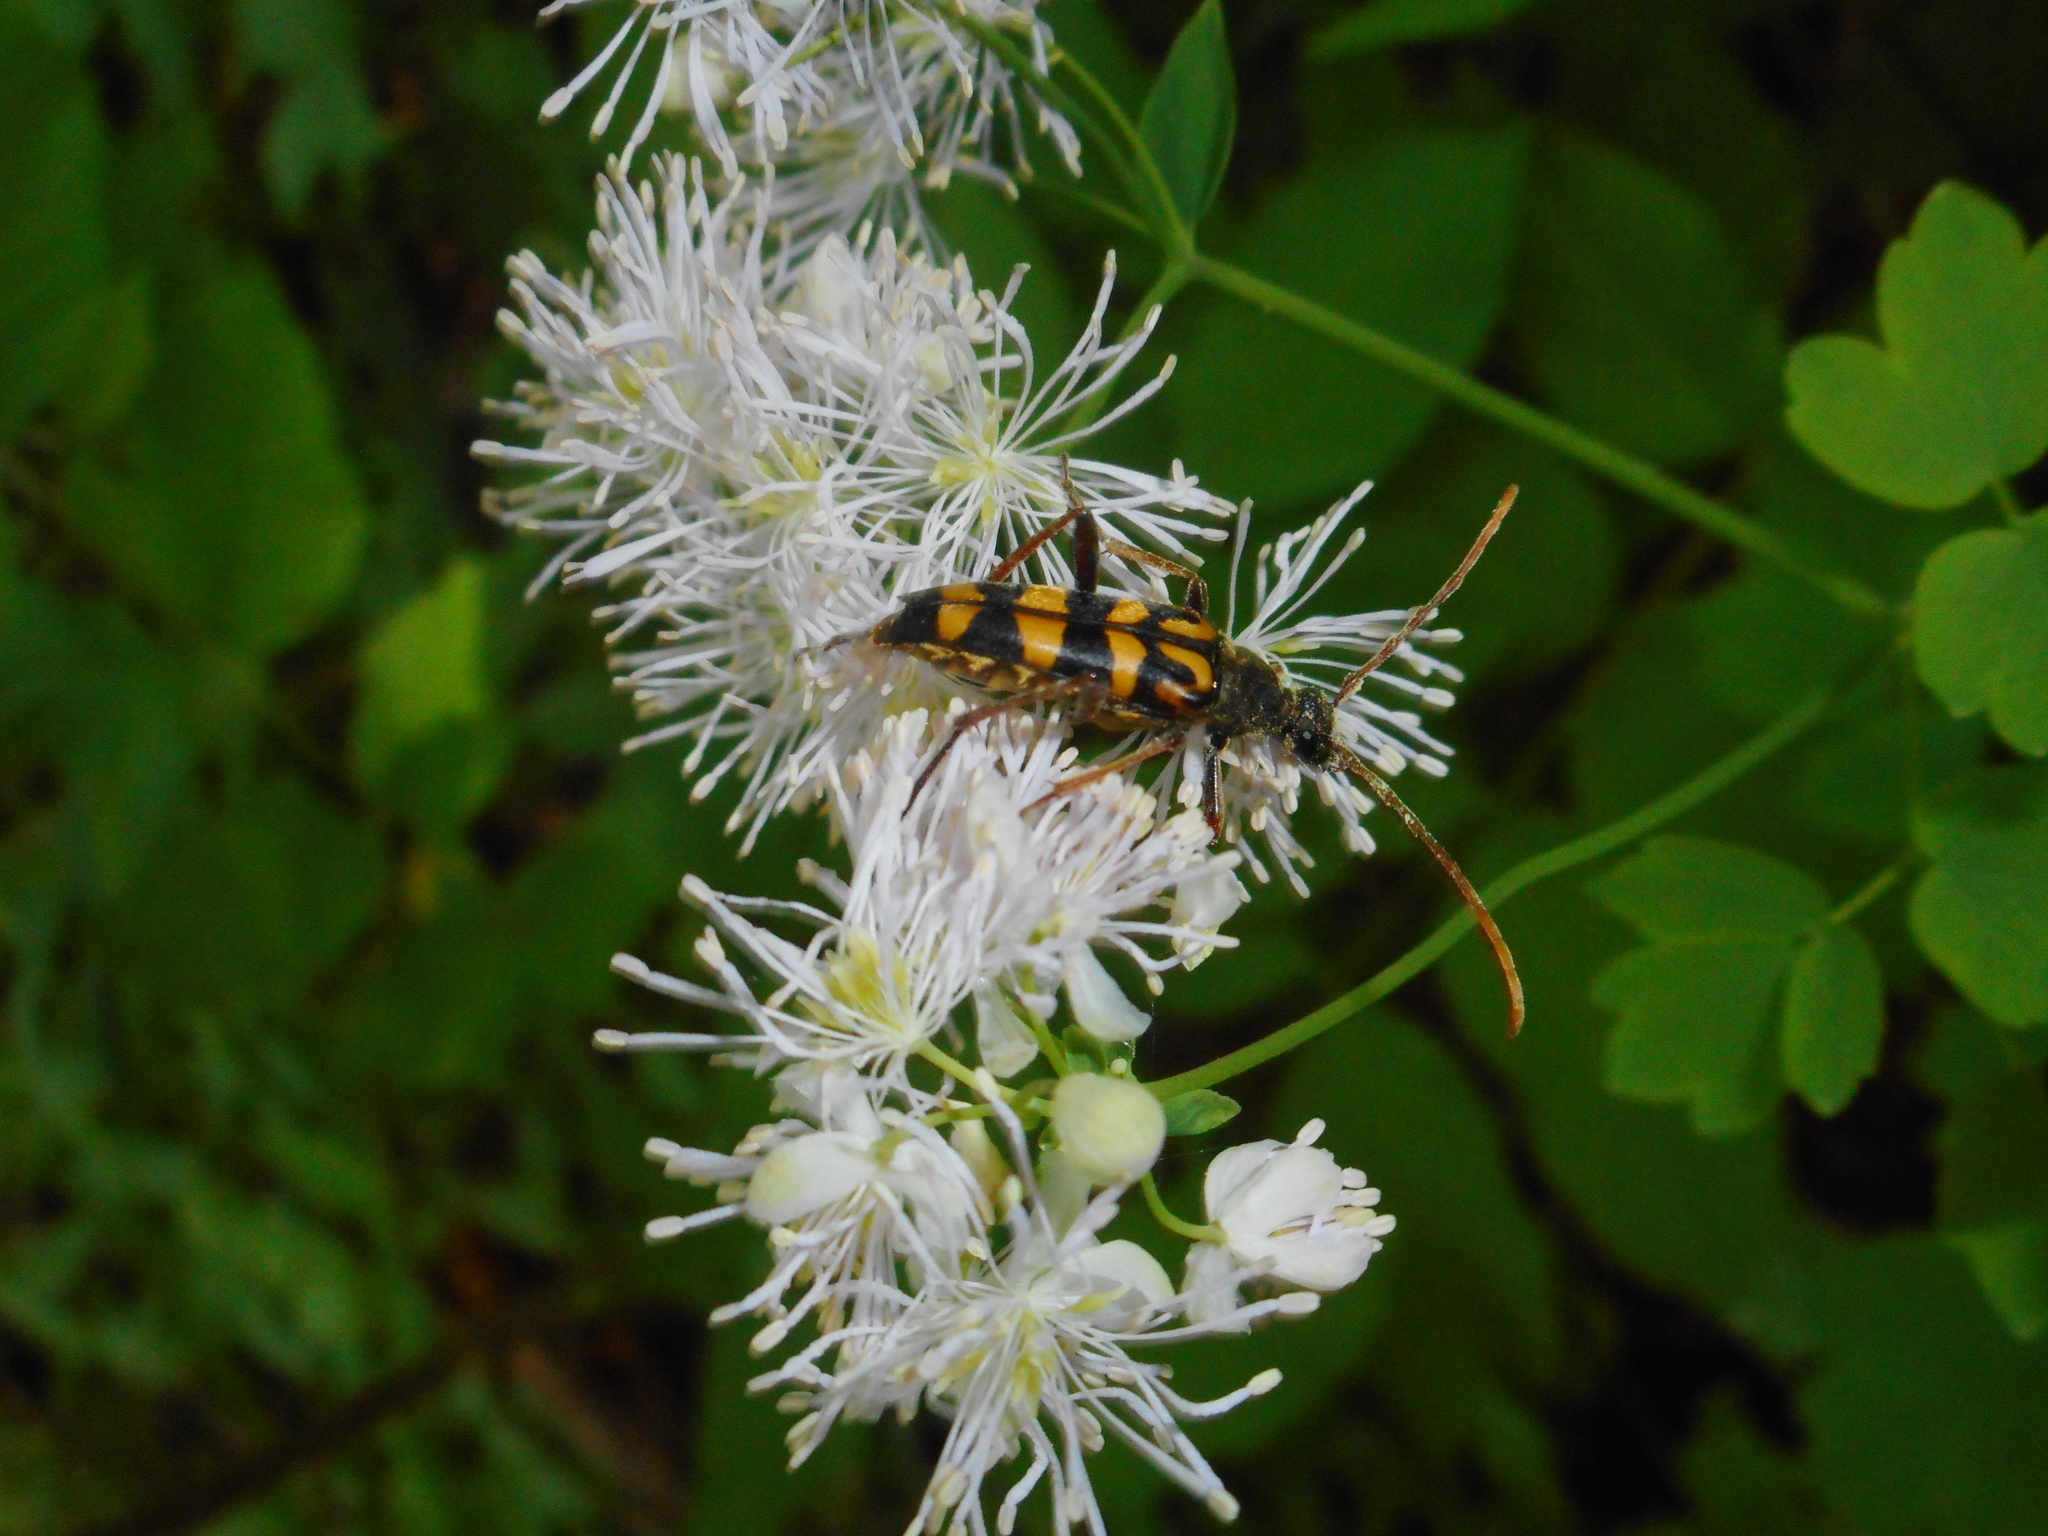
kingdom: Animalia
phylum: Arthropoda
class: Insecta
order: Coleoptera
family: Cerambycidae
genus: Leptura
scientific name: Leptura annularis
